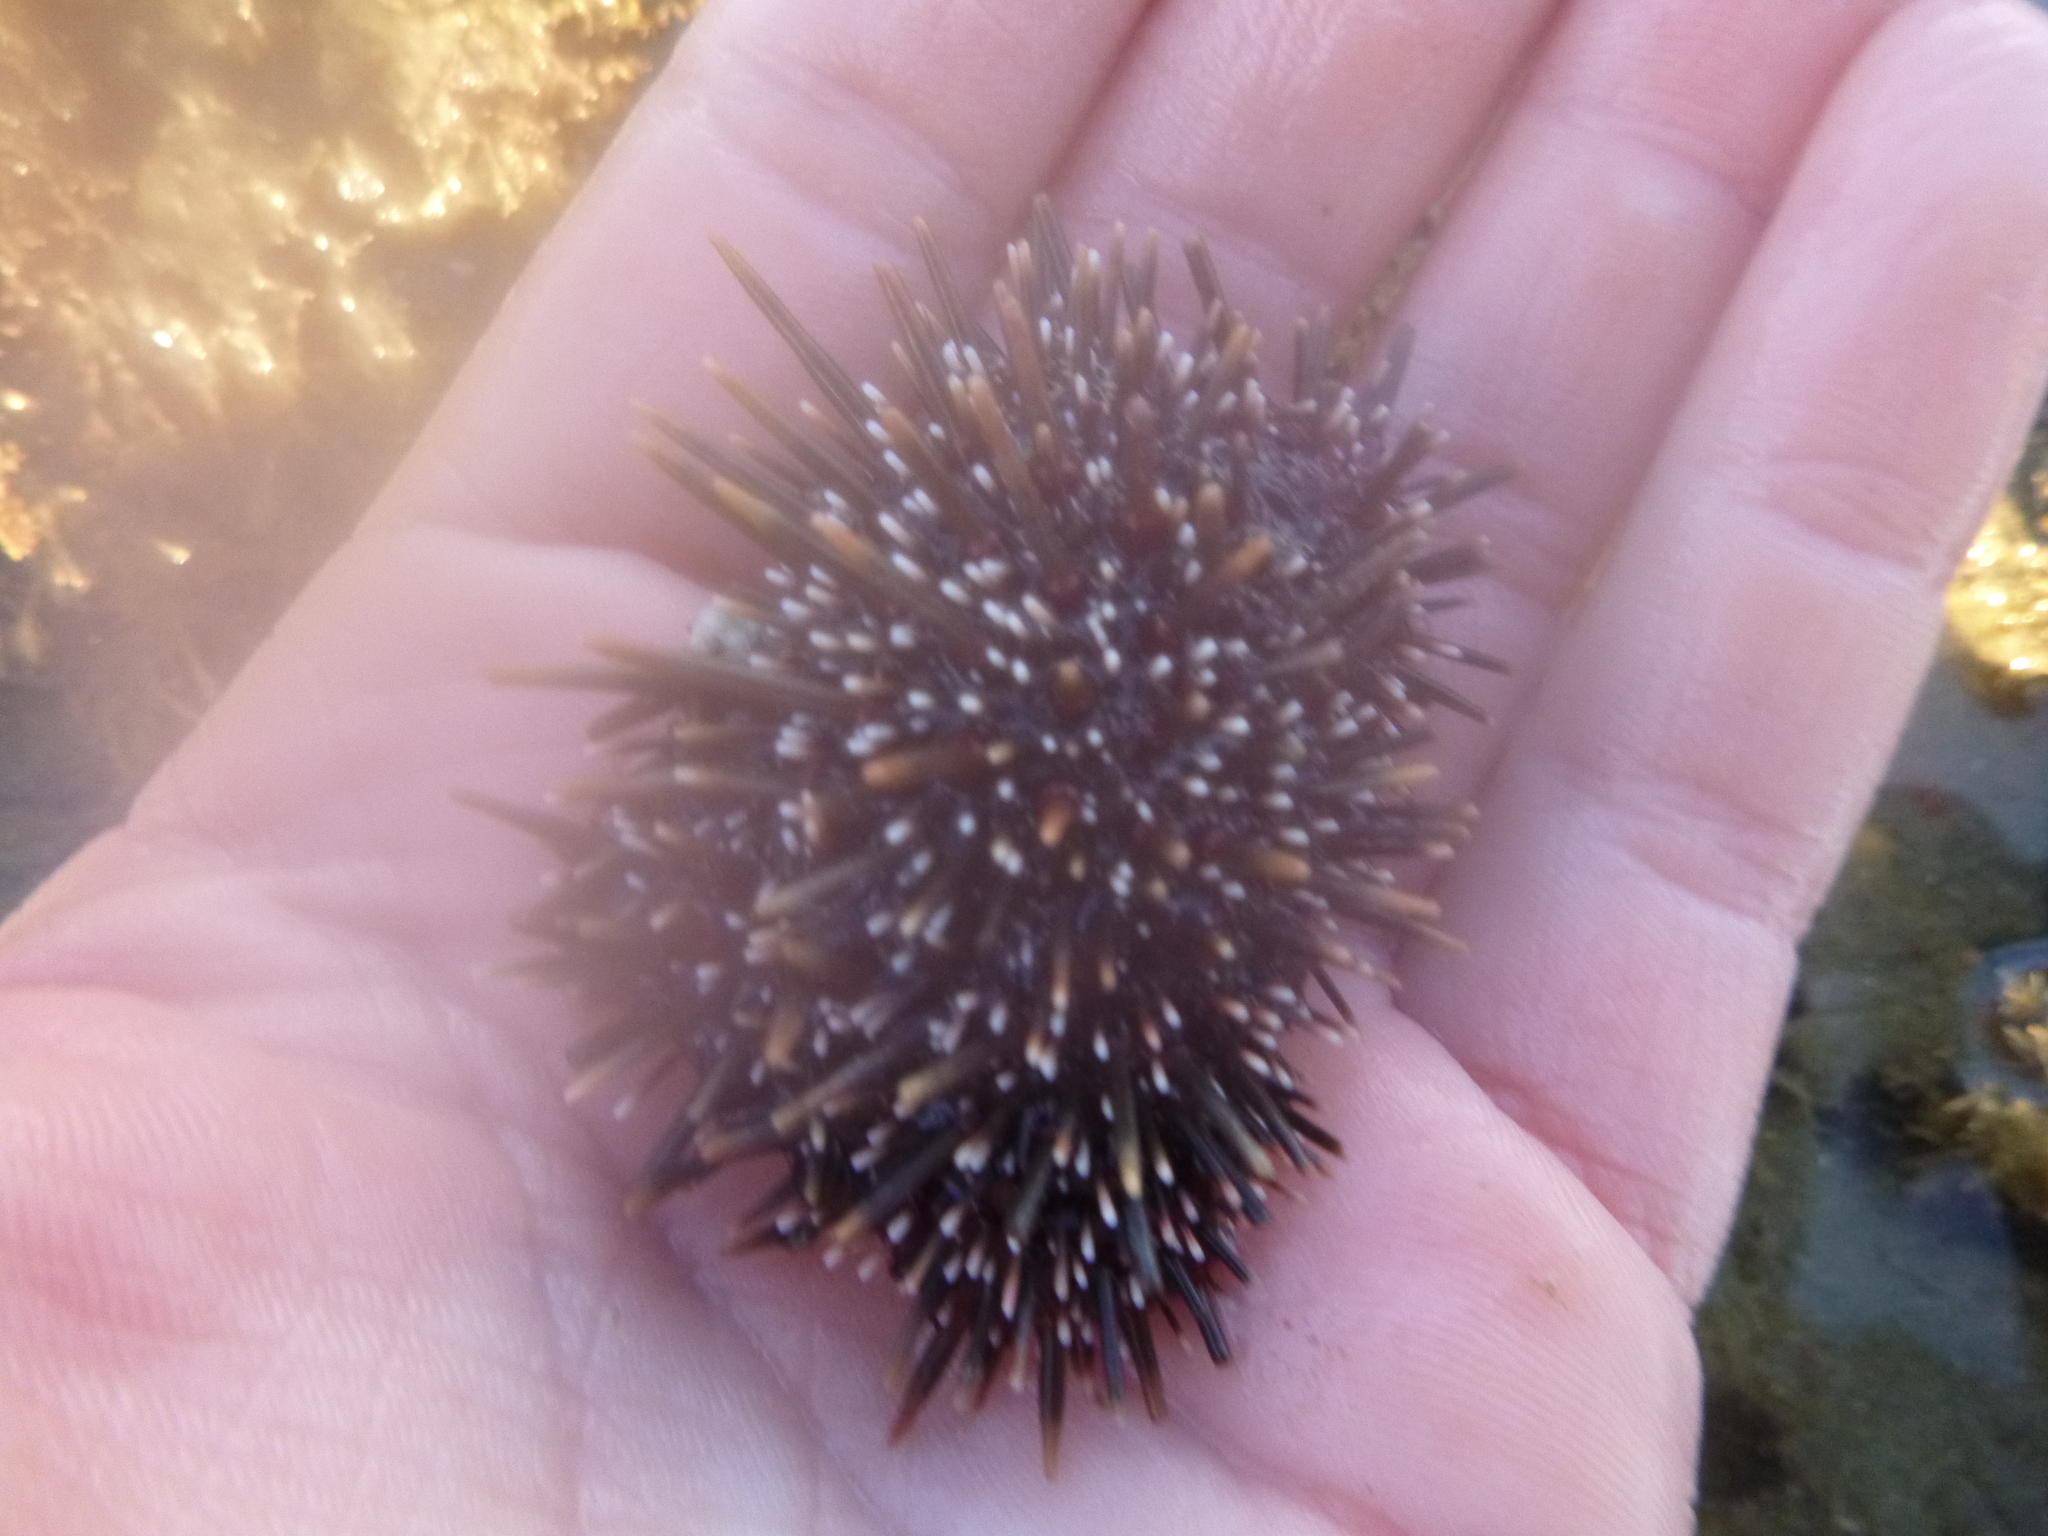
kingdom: Animalia
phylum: Echinodermata
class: Echinoidea
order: Camarodonta
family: Echinometridae
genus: Evechinus
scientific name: Evechinus chloroticus
